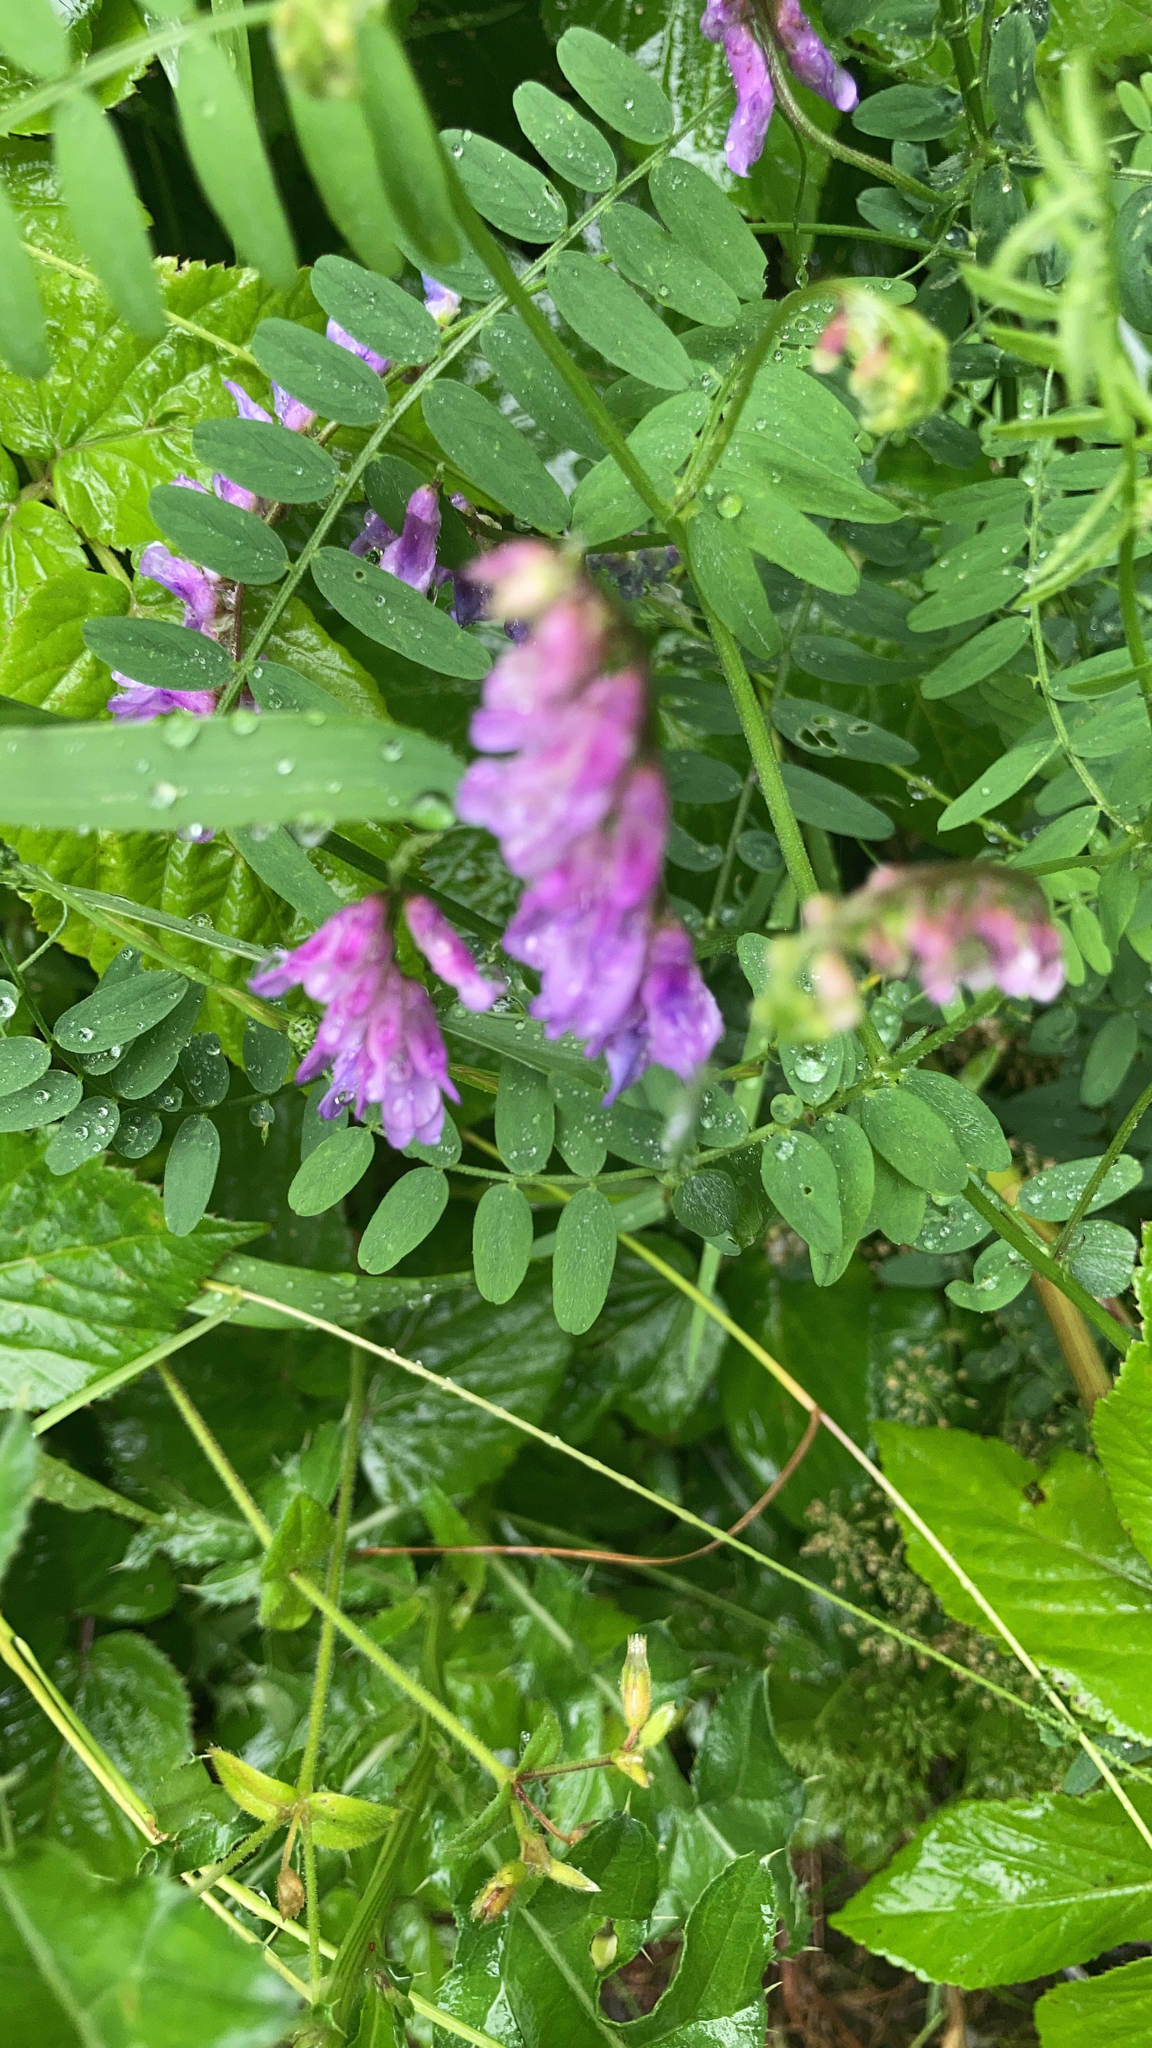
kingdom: Plantae
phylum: Tracheophyta
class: Magnoliopsida
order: Fabales
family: Fabaceae
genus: Vicia
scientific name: Vicia cracca
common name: Bird vetch
